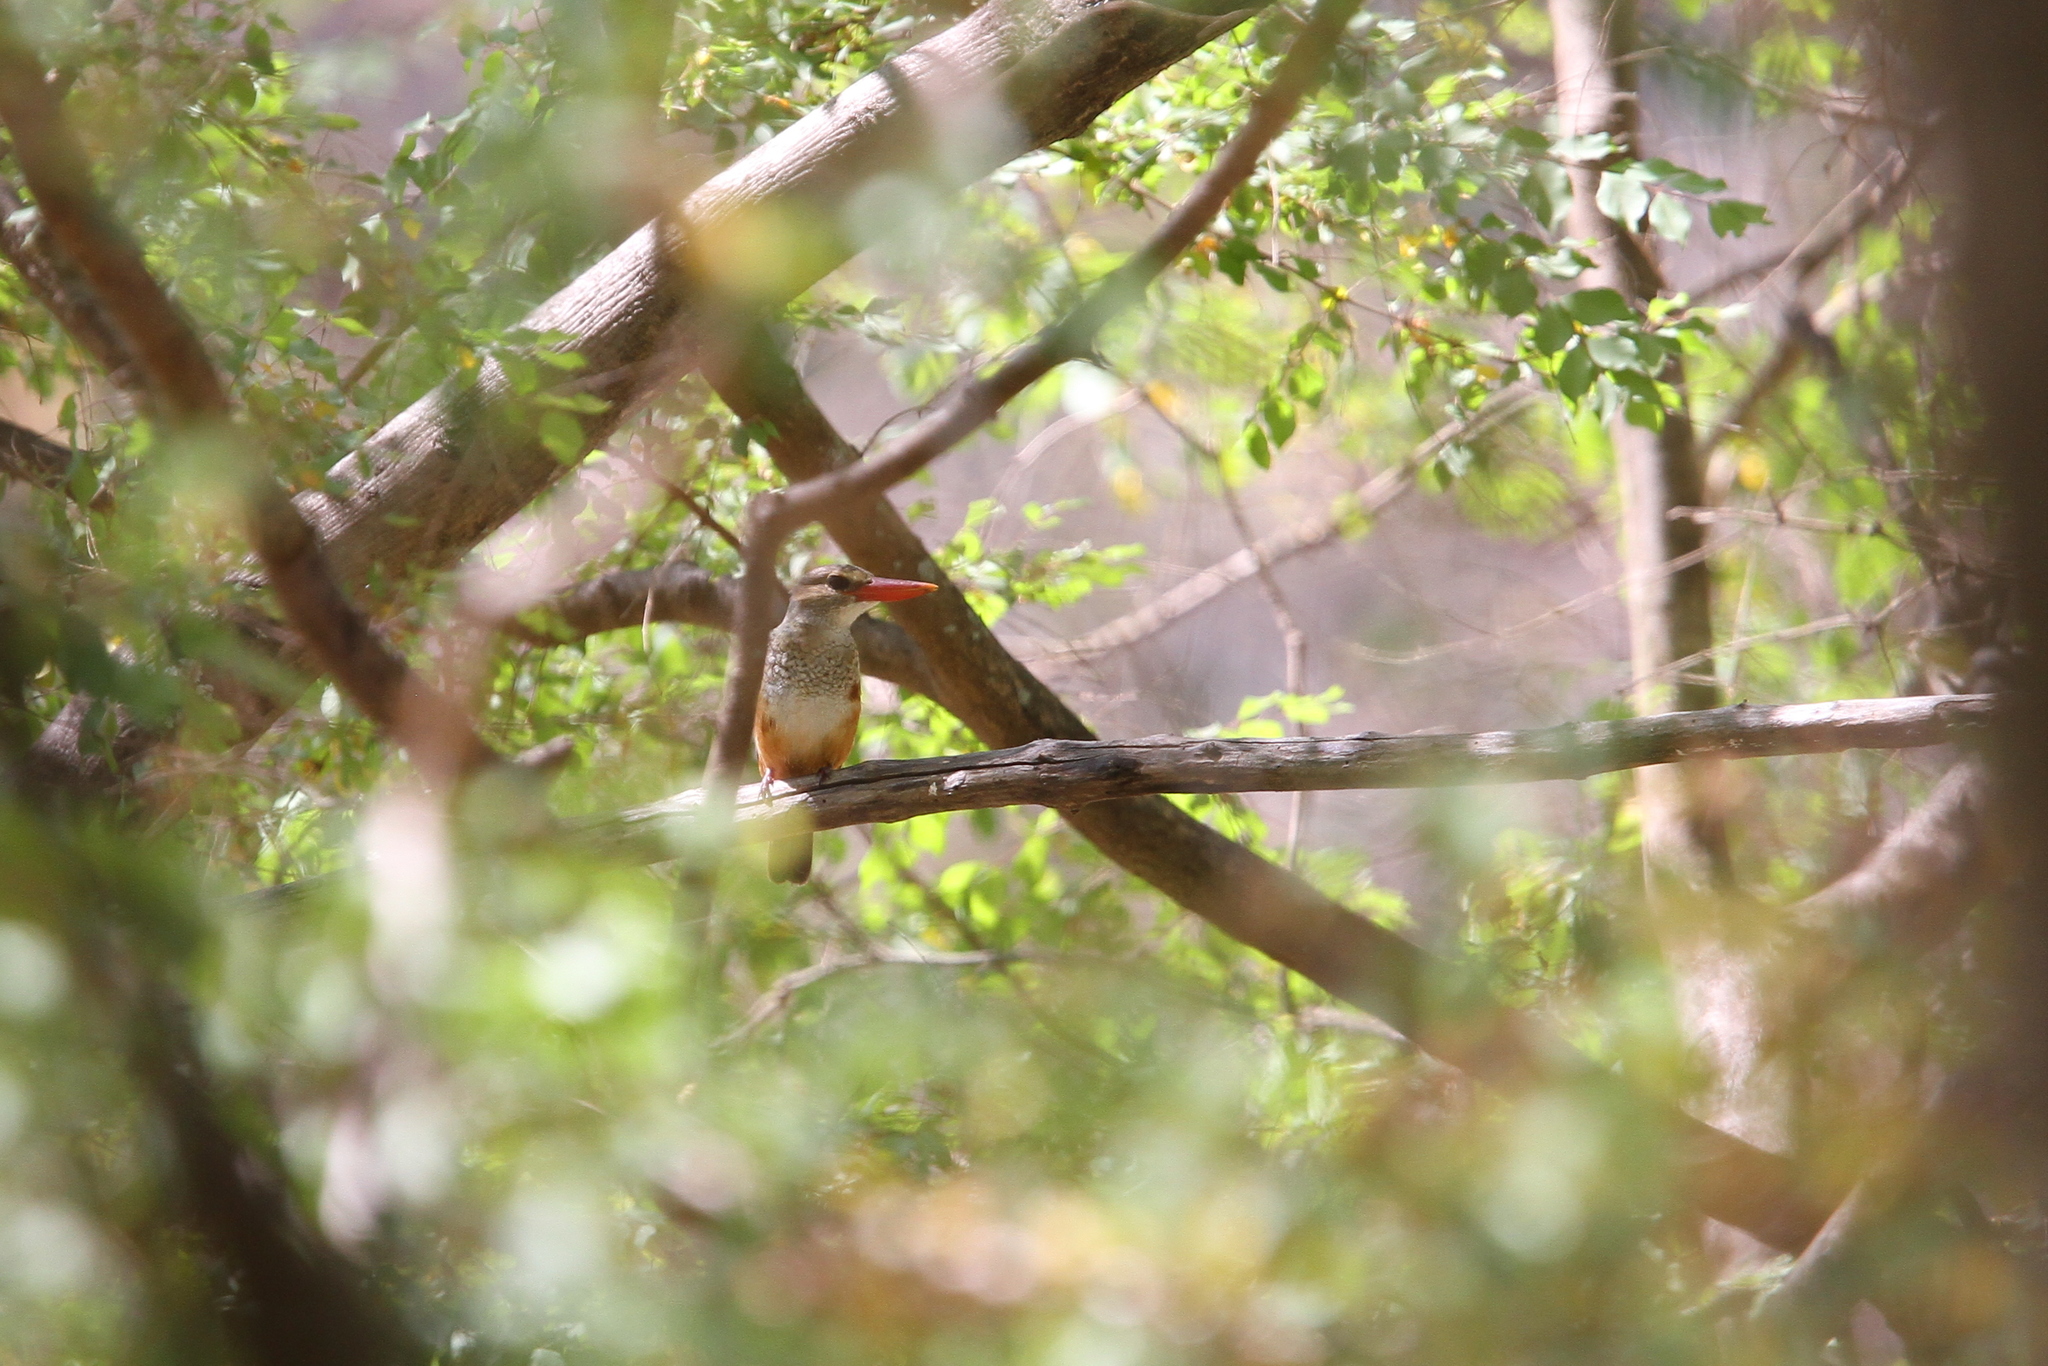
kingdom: Animalia
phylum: Chordata
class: Aves
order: Coraciiformes
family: Alcedinidae
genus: Halcyon
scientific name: Halcyon leucocephala
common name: Grey-headed kingfisher
